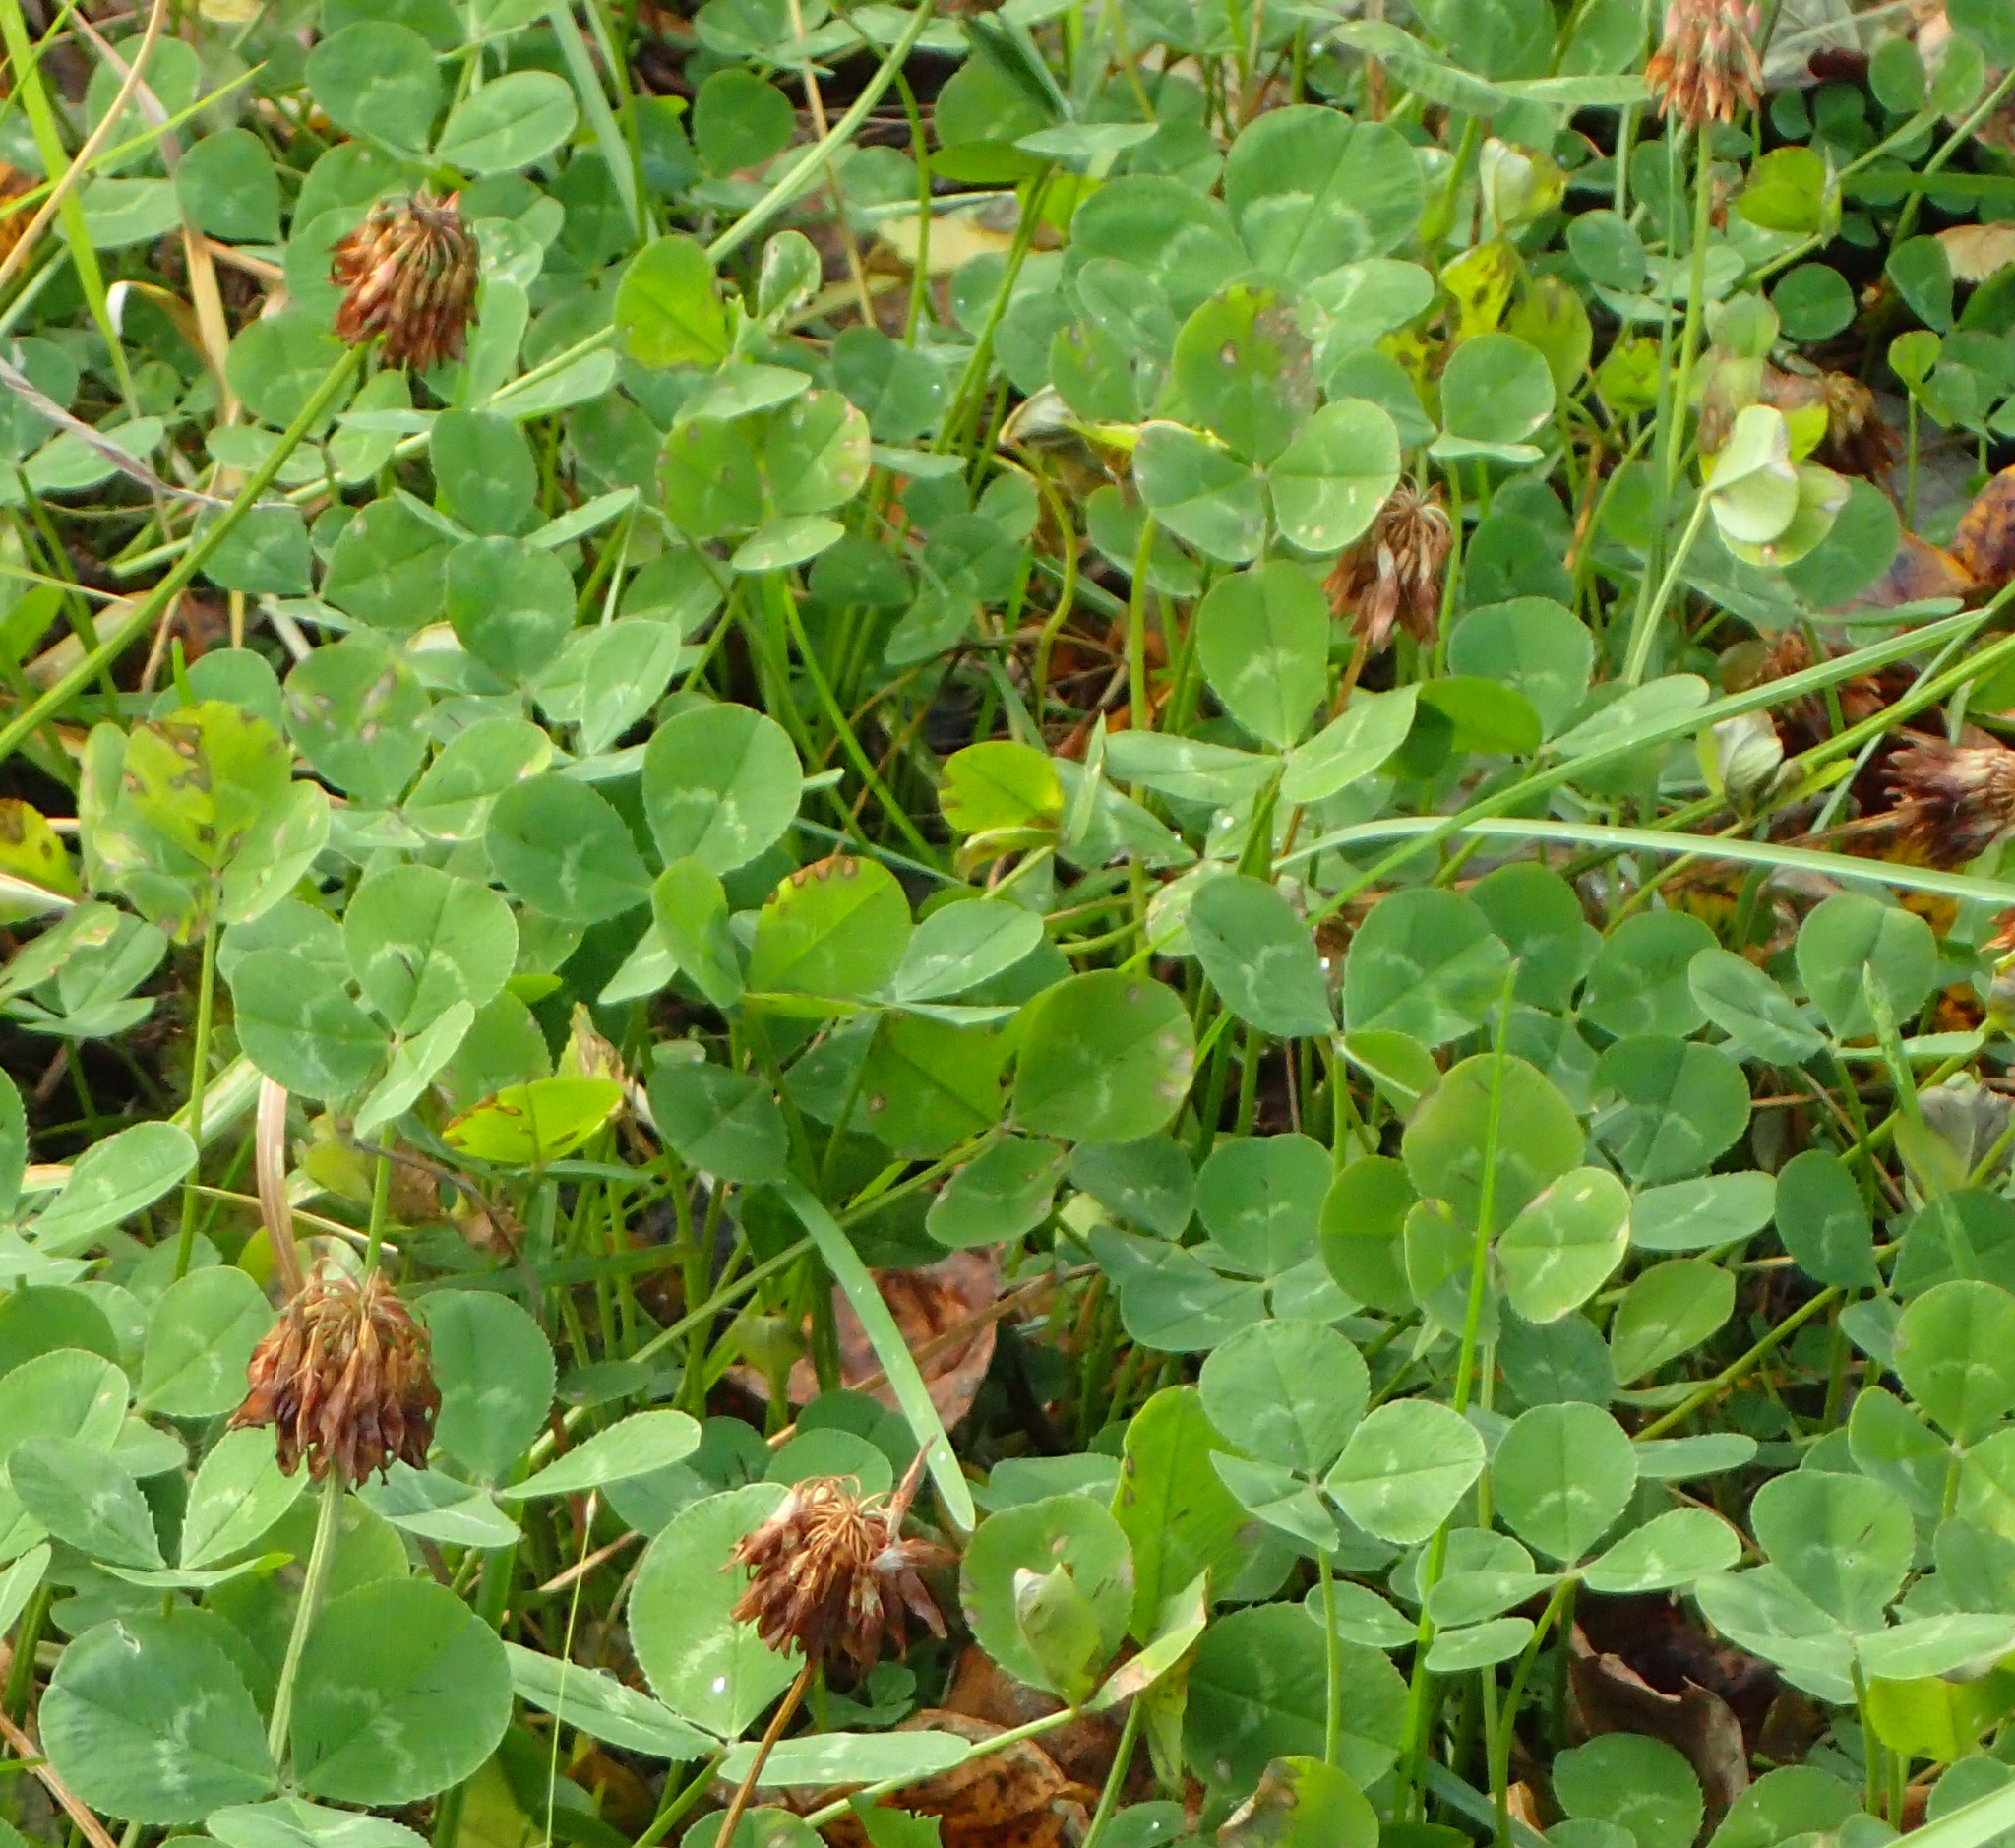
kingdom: Plantae
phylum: Tracheophyta
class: Magnoliopsida
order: Fabales
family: Fabaceae
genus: Trifolium
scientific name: Trifolium repens
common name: White clover
